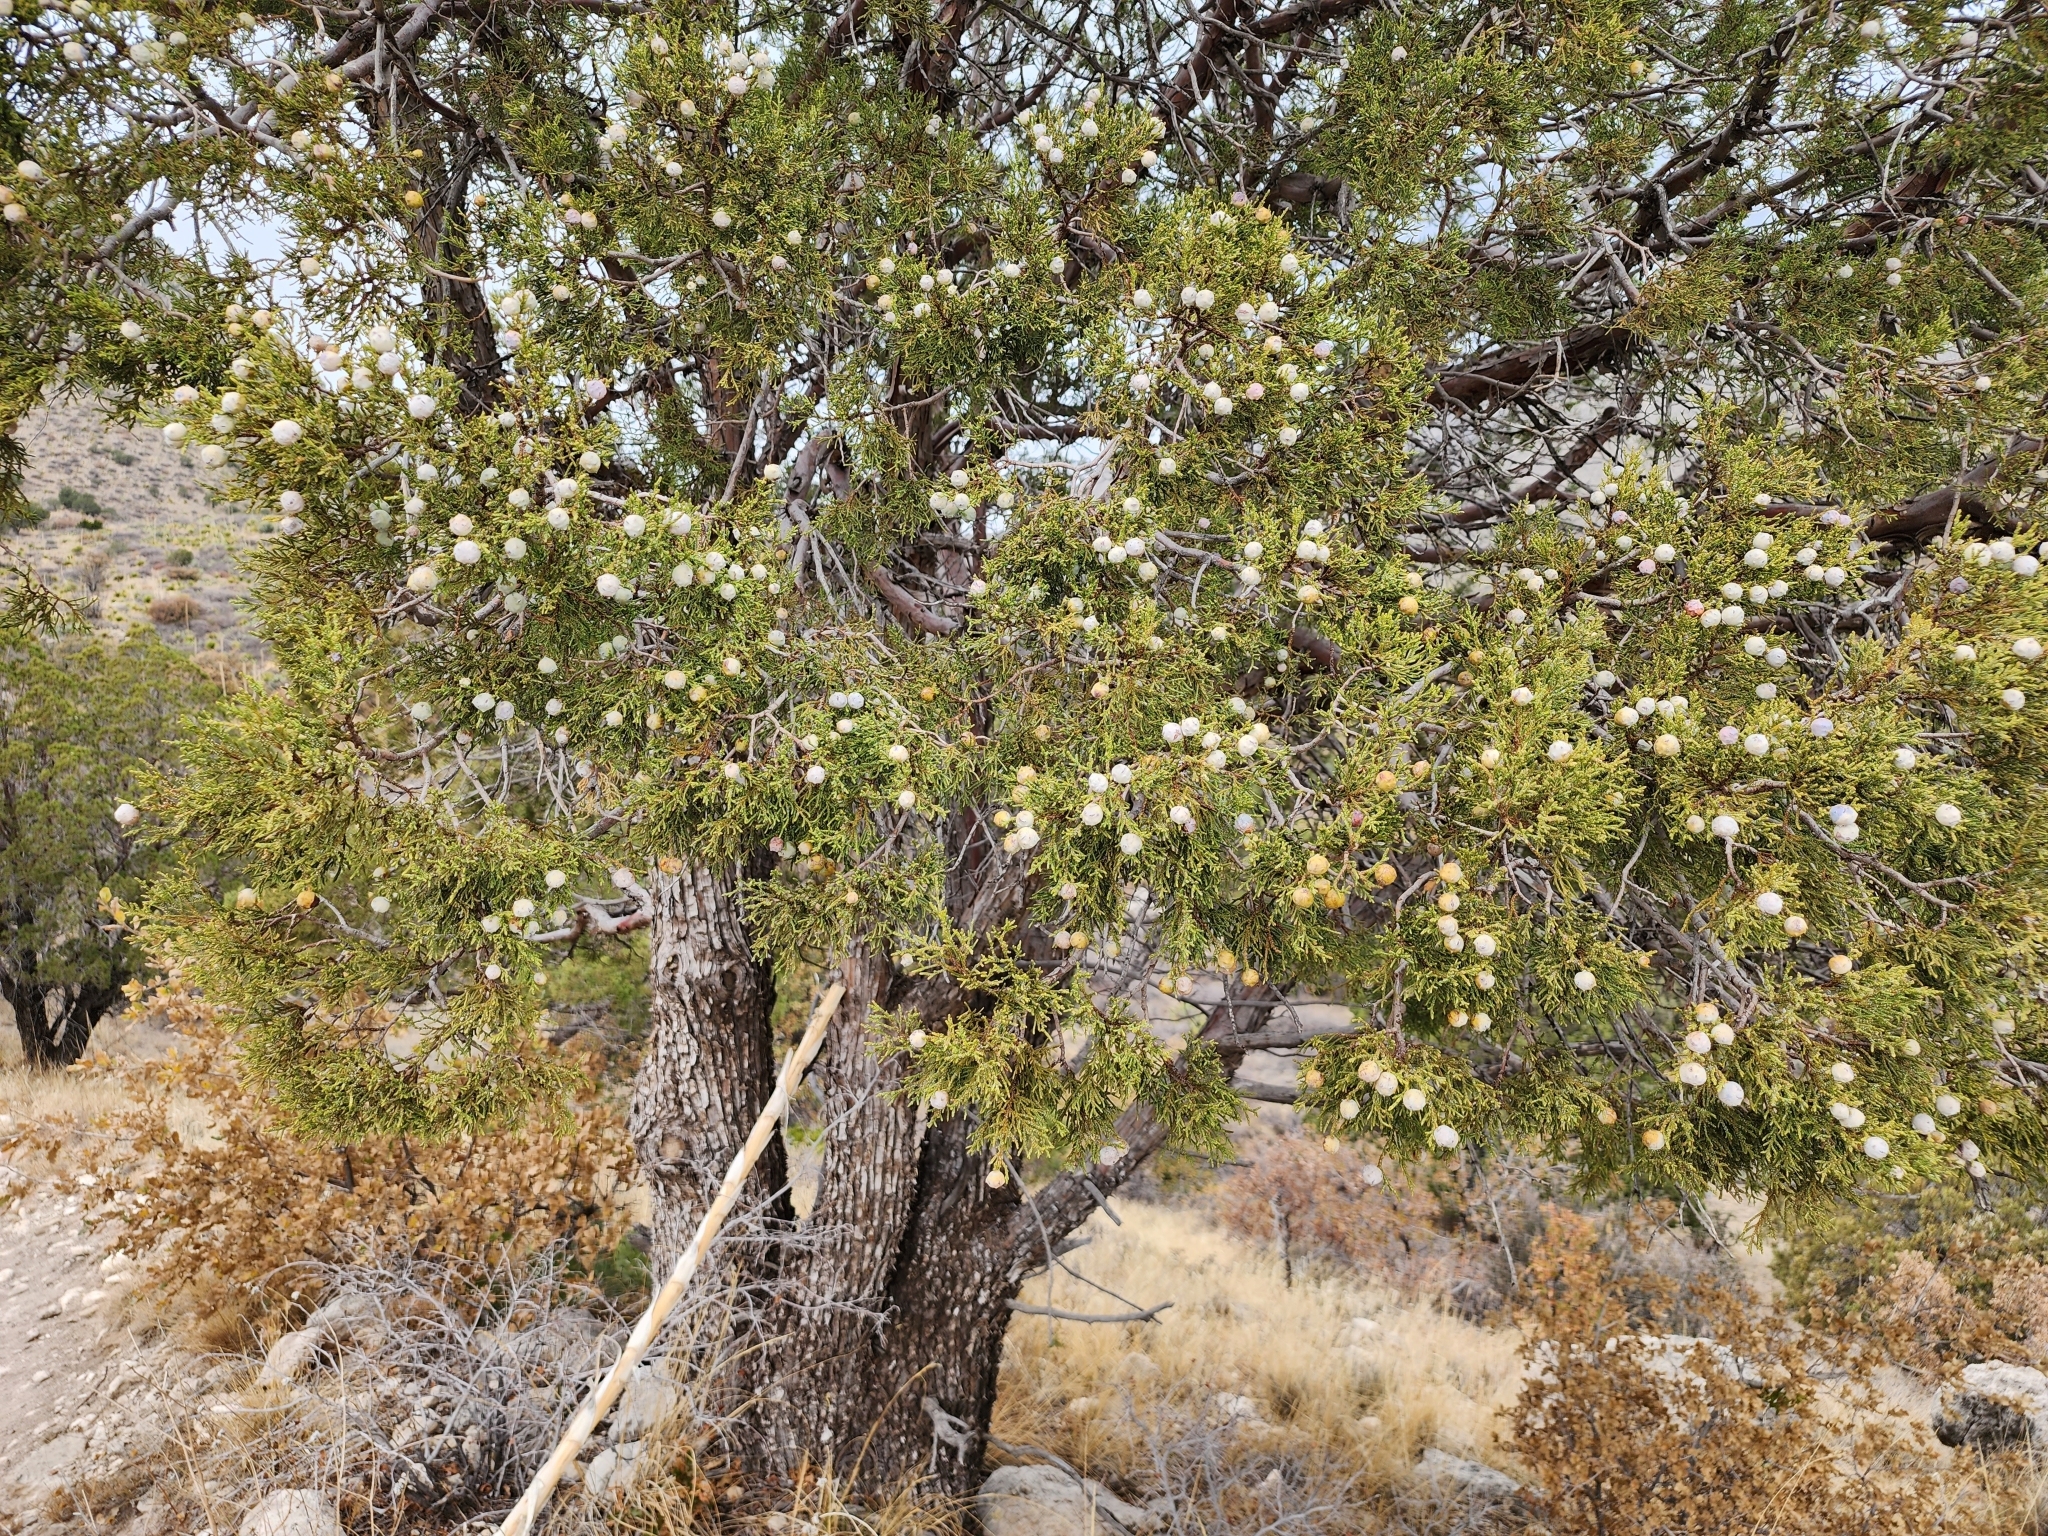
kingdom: Plantae
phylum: Tracheophyta
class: Pinopsida
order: Pinales
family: Cupressaceae
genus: Juniperus
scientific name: Juniperus deppeana
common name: Alligator juniper
